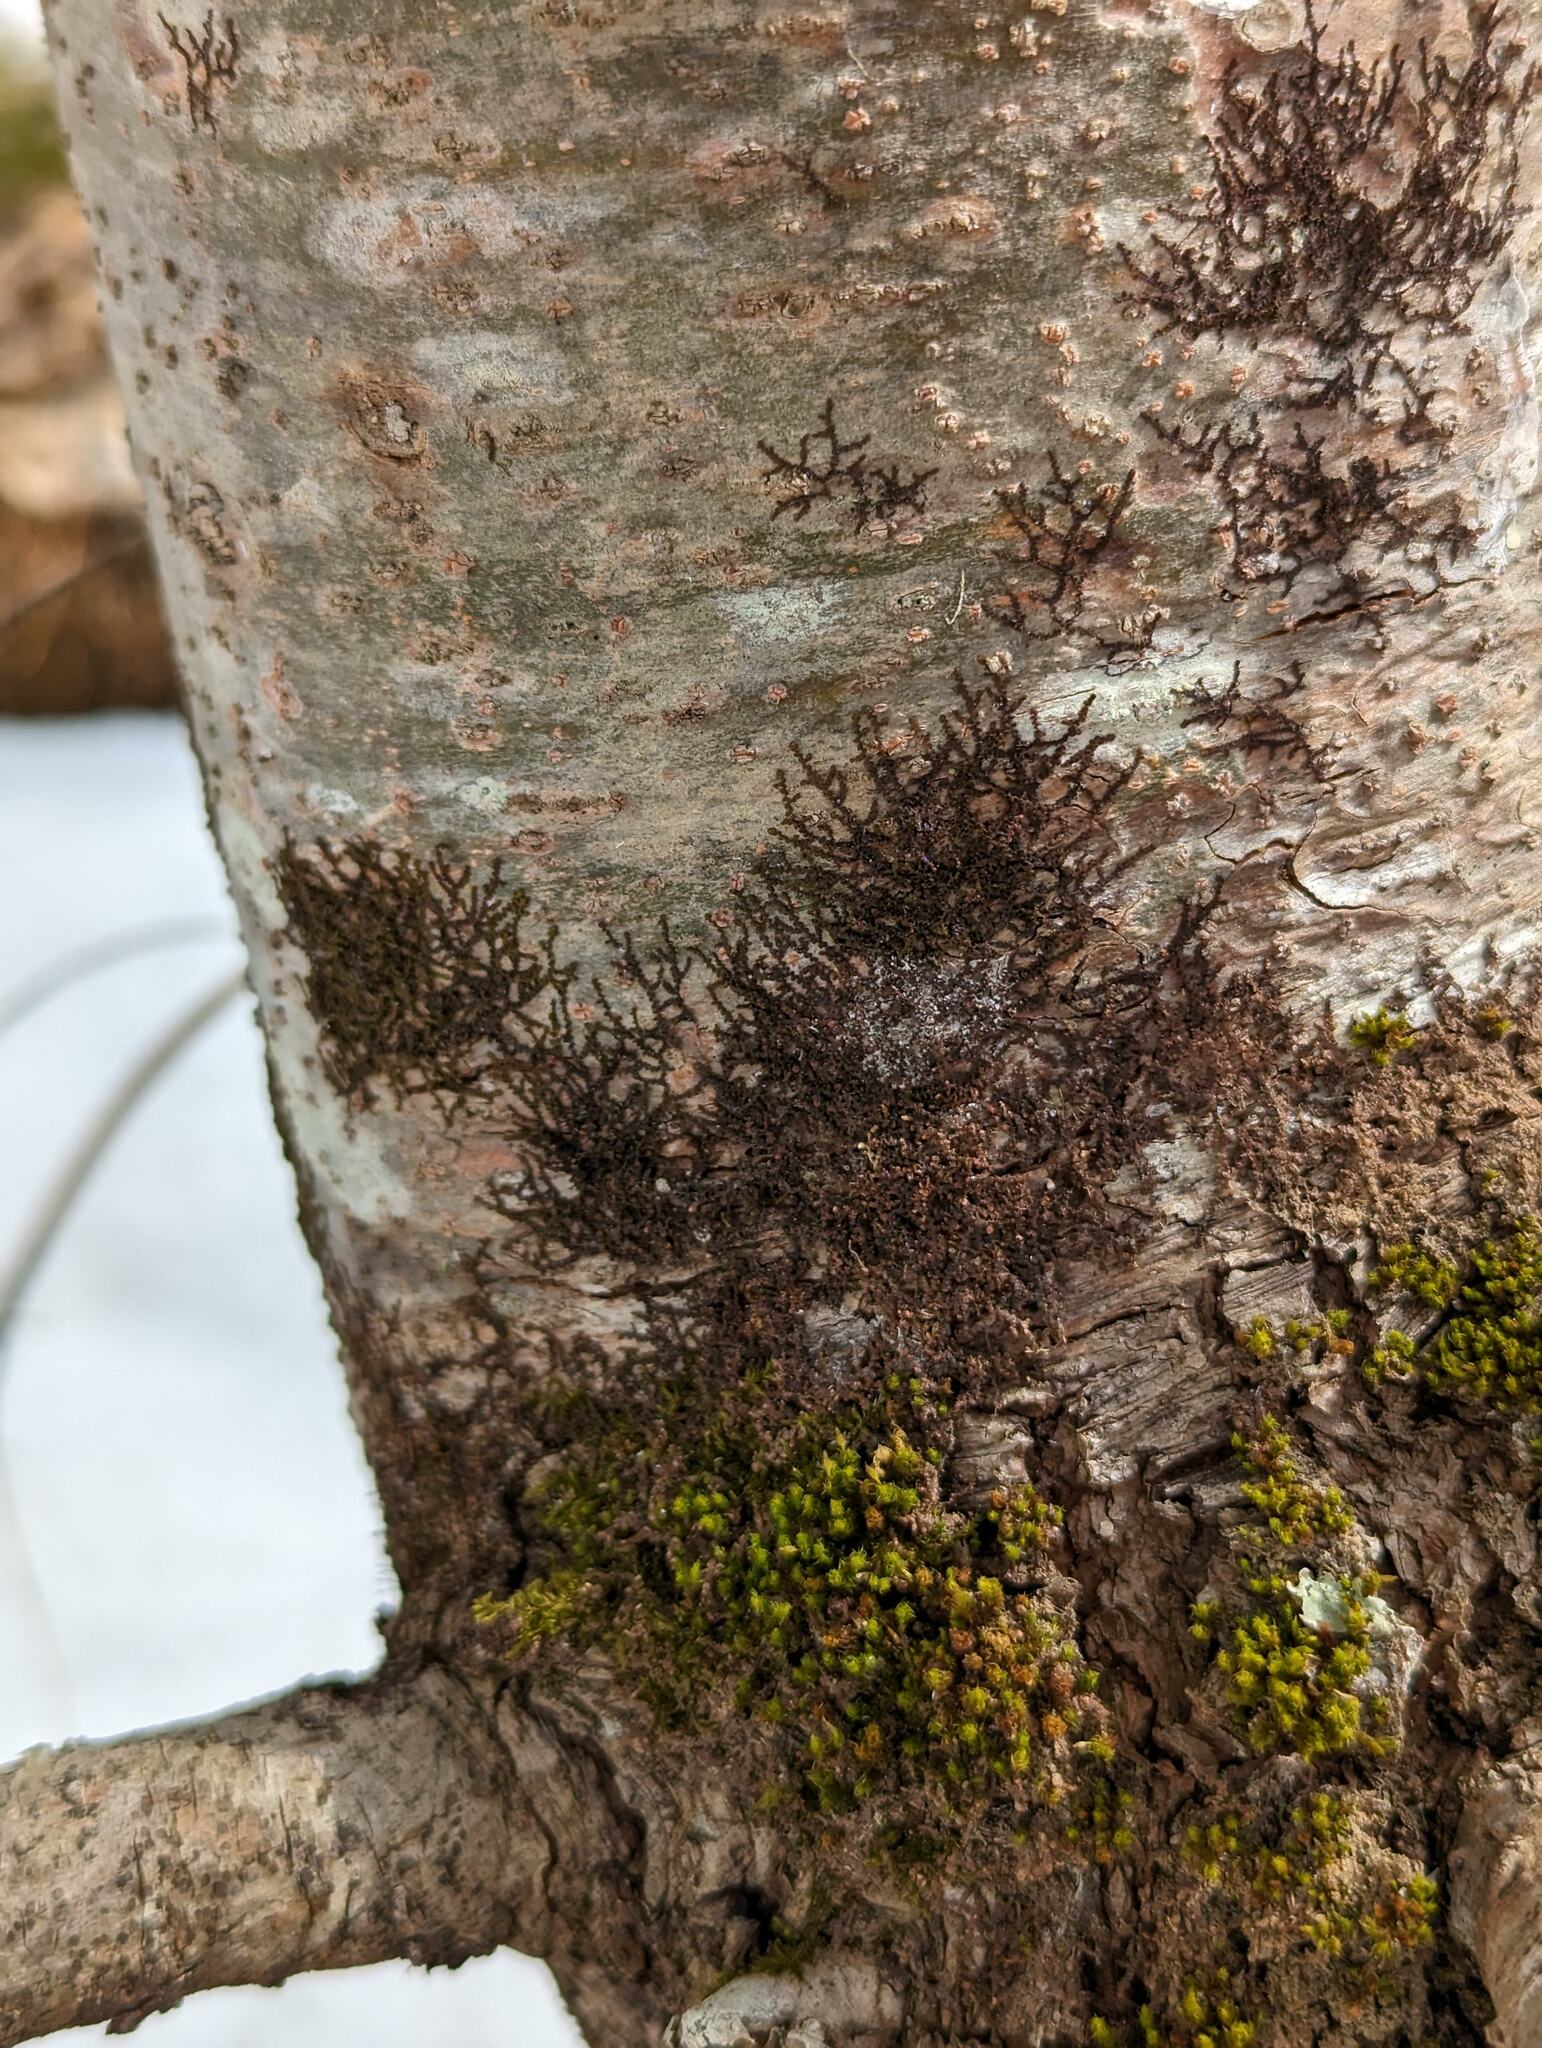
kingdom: Plantae
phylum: Marchantiophyta
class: Jungermanniopsida
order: Porellales
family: Frullaniaceae
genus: Frullania
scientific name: Frullania eboracensis
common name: New york scalewort
